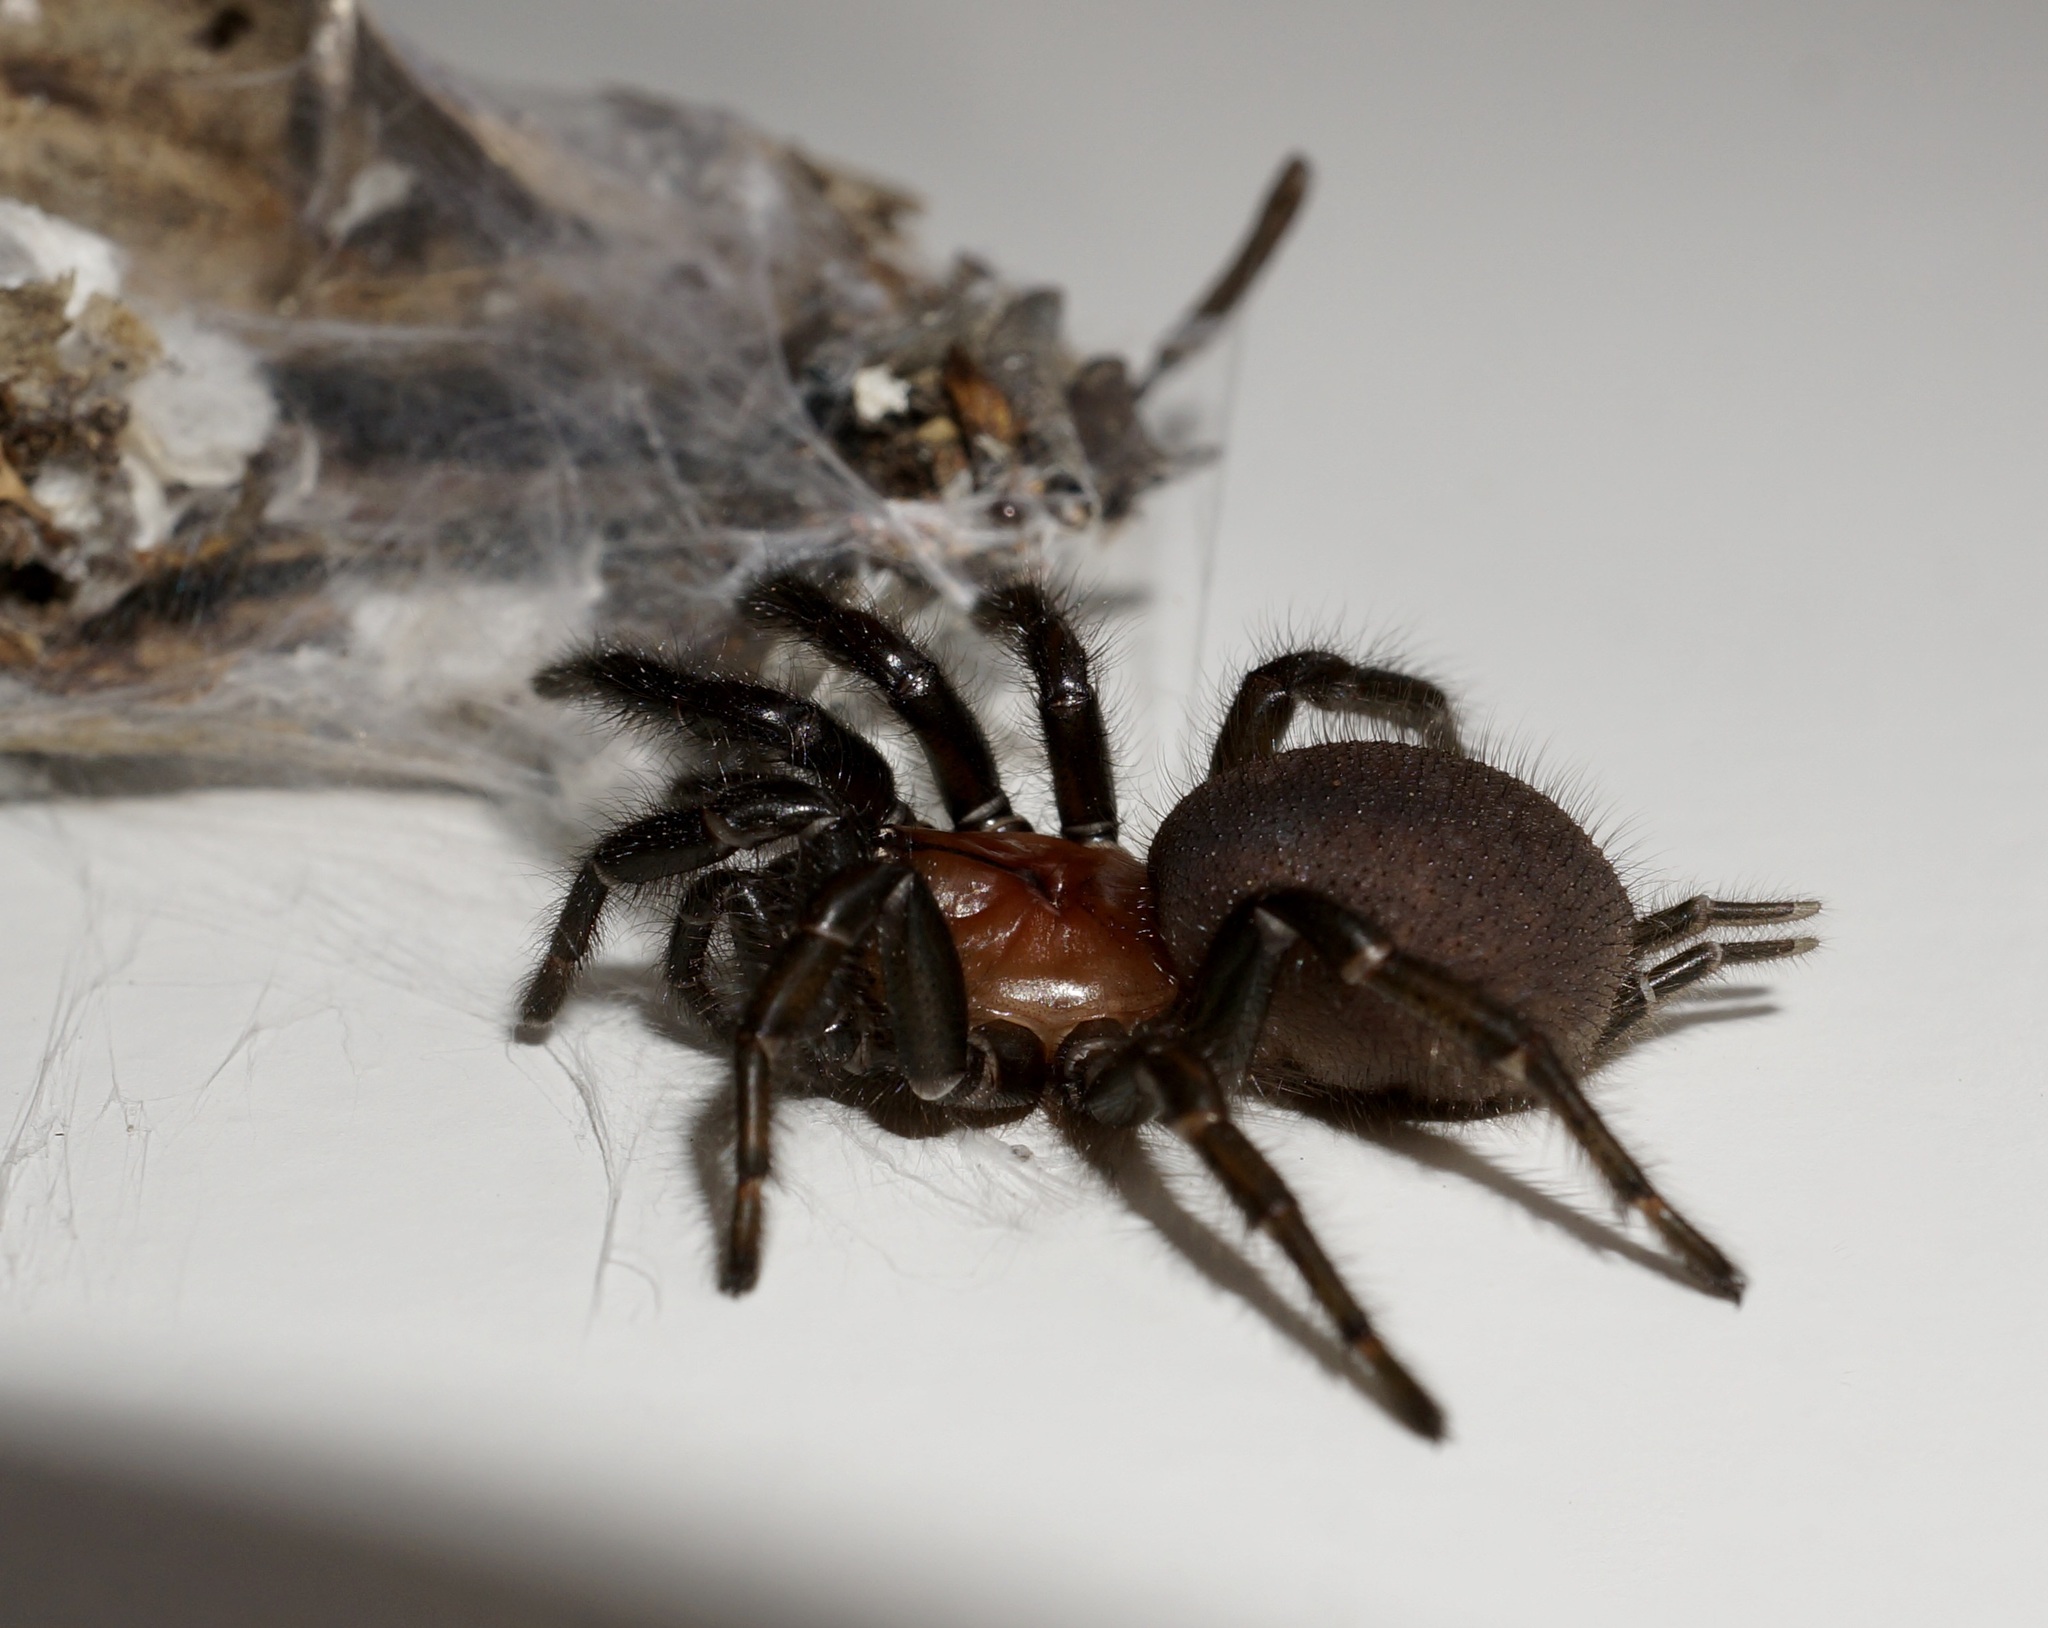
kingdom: Animalia
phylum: Arthropoda
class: Arachnida
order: Araneae
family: Porrhothelidae
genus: Porrhothele
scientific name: Porrhothele antipodiana
